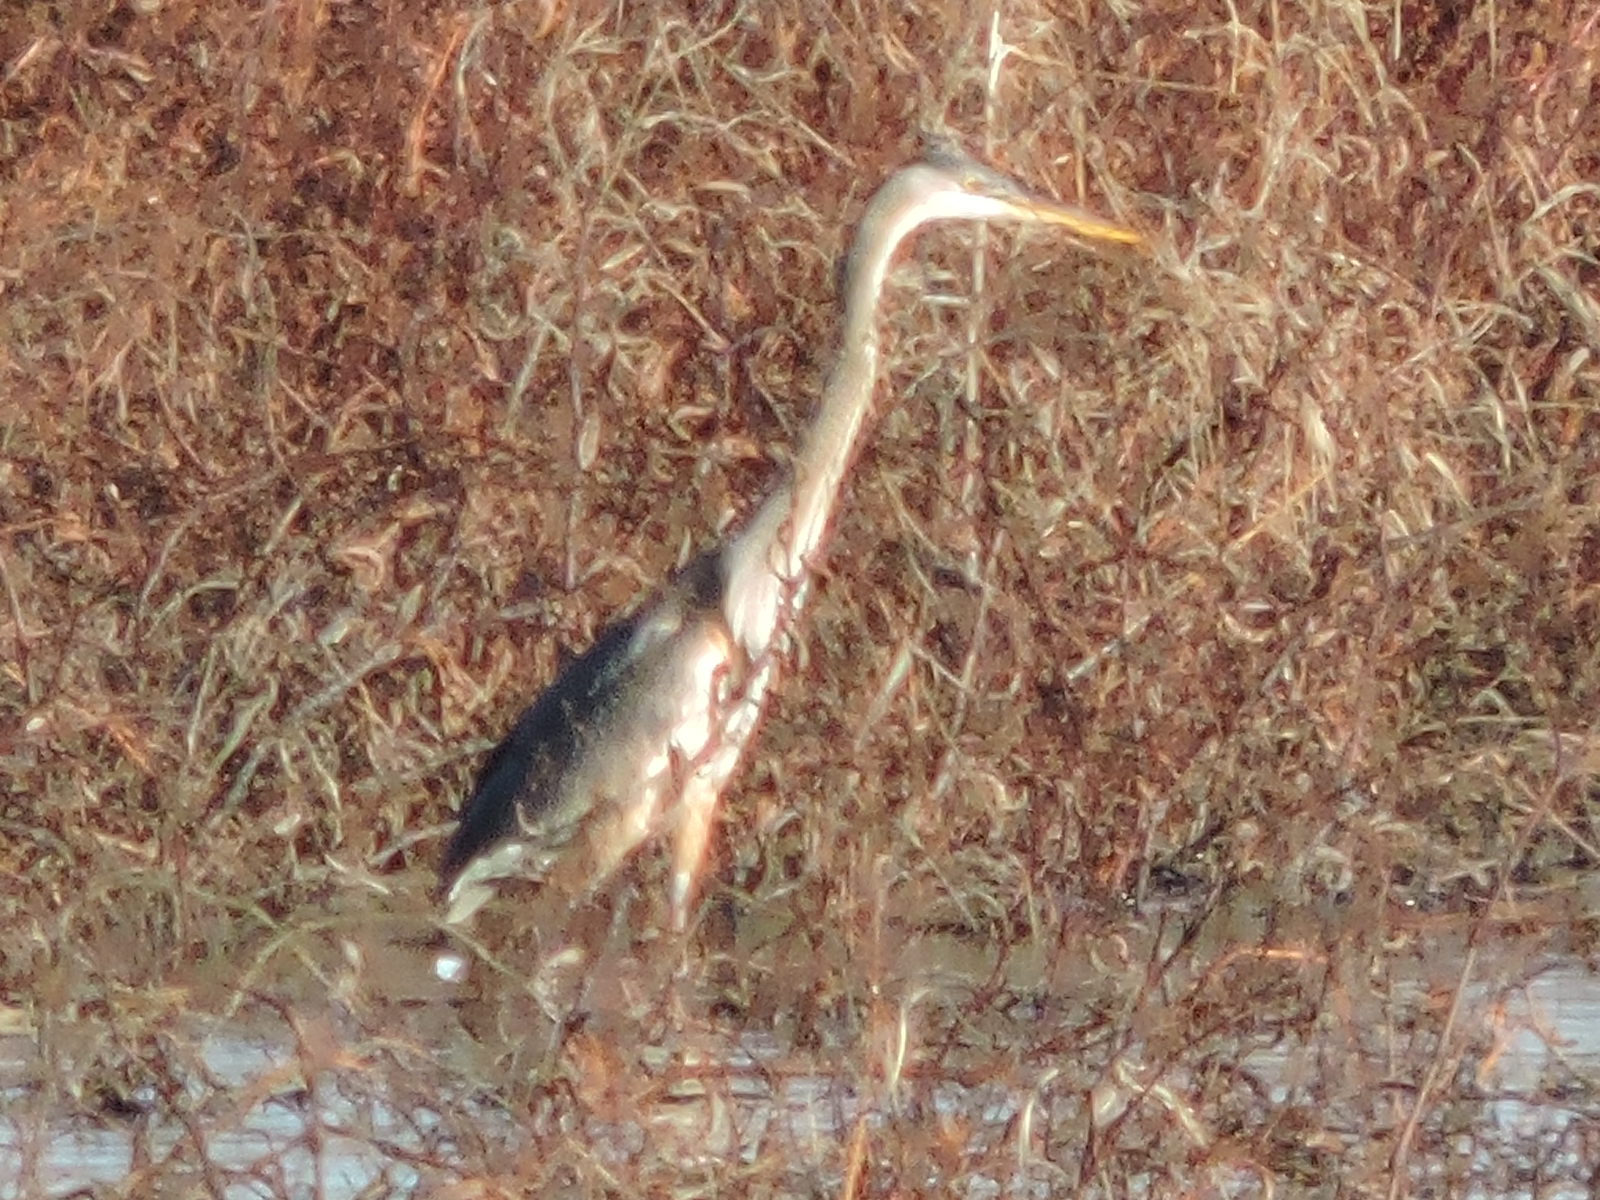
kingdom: Animalia
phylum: Chordata
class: Aves
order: Pelecaniformes
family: Ardeidae
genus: Ardea
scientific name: Ardea herodias
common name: Great blue heron
